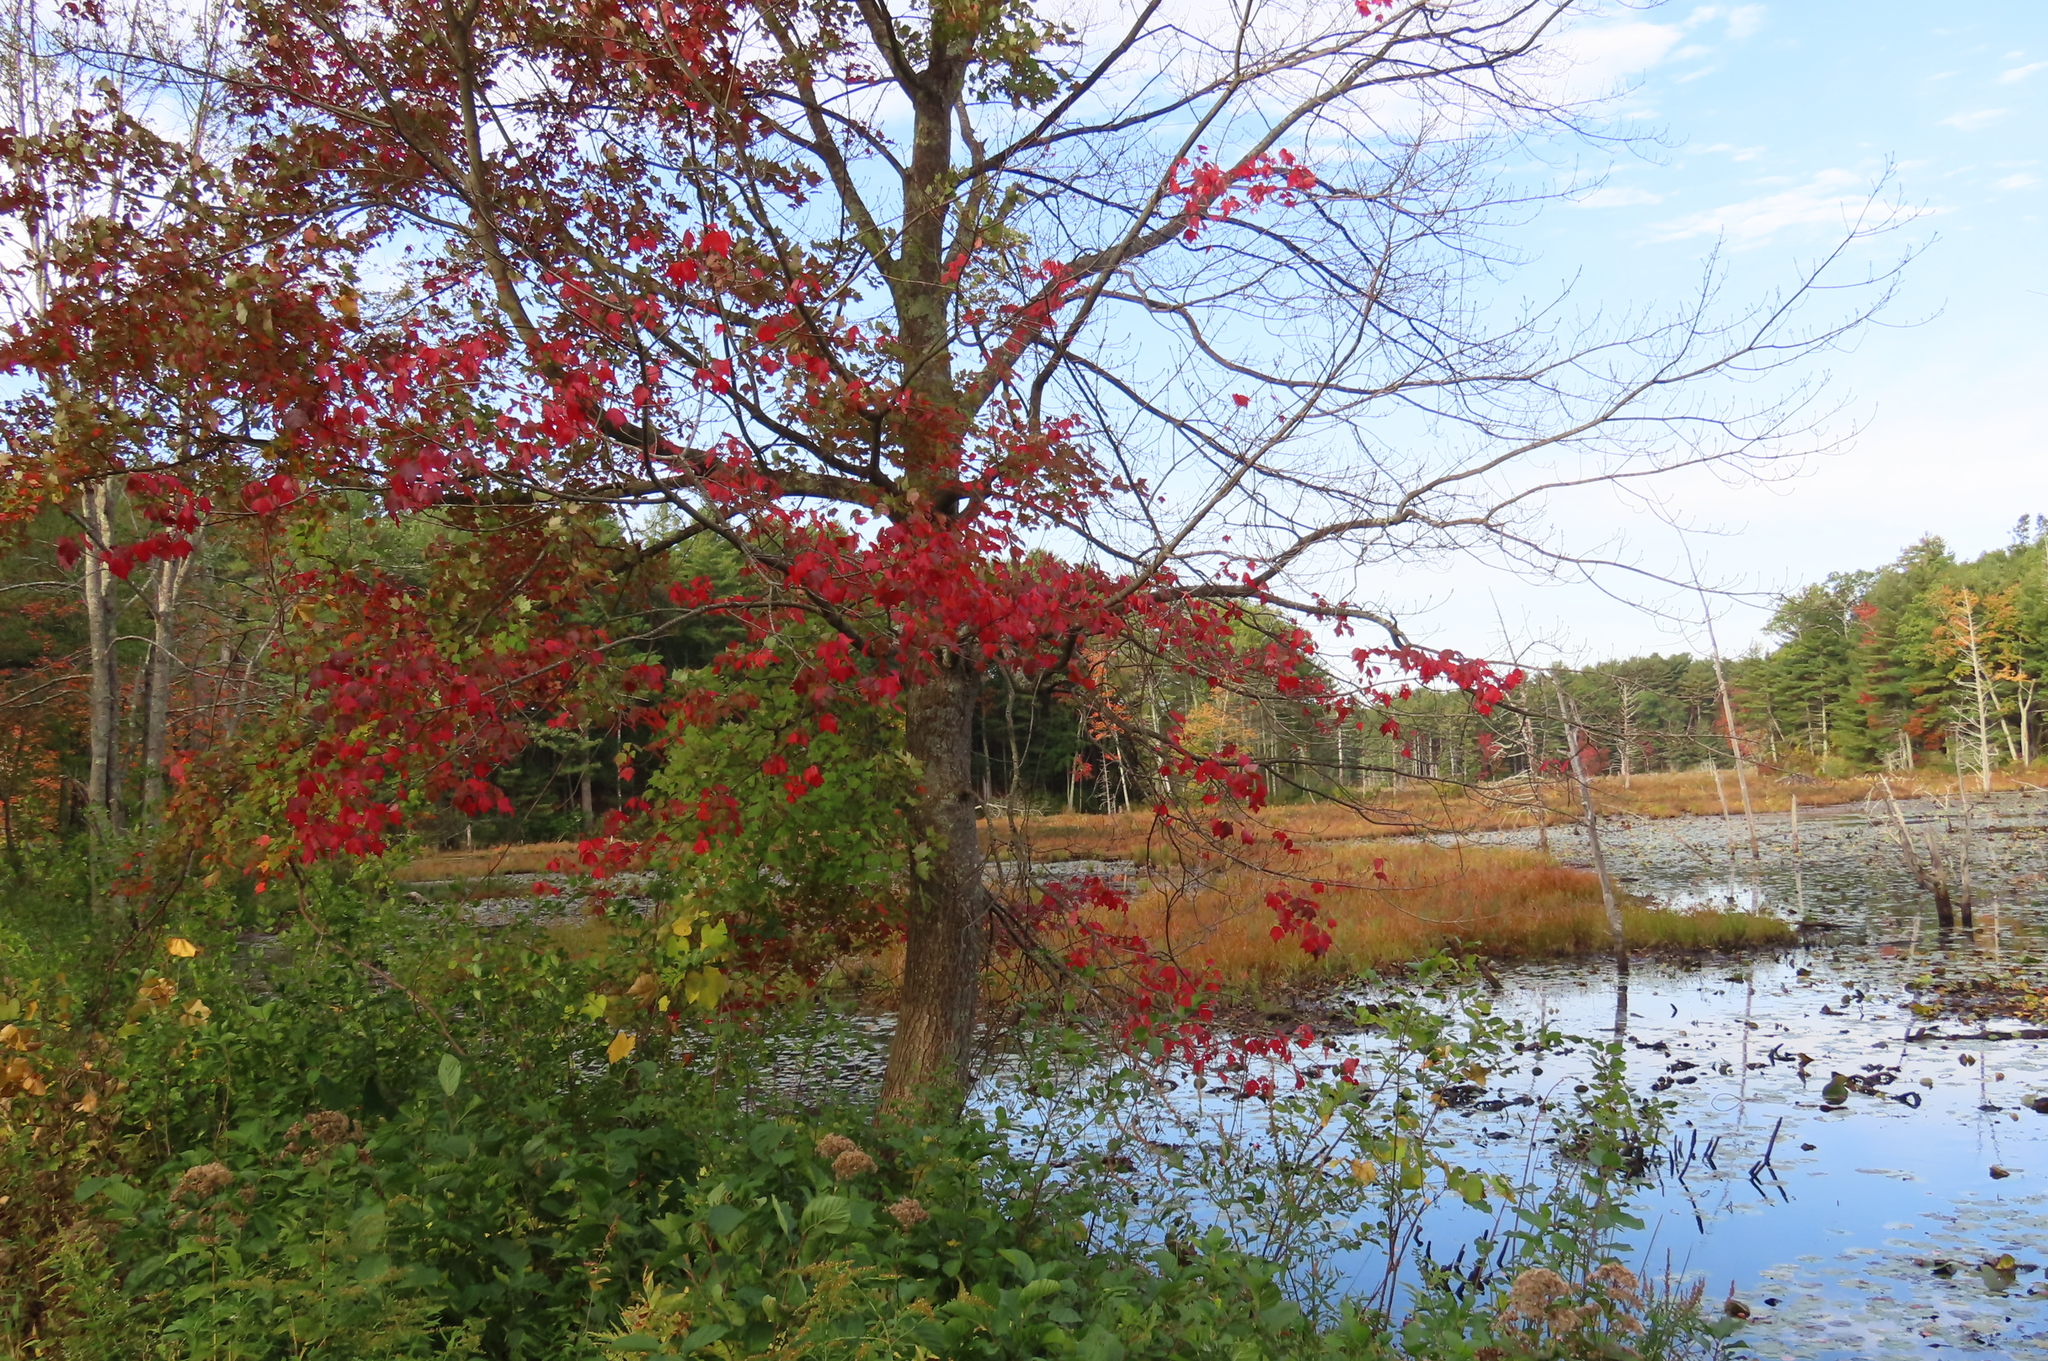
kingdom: Plantae
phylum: Tracheophyta
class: Magnoliopsida
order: Sapindales
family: Sapindaceae
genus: Acer
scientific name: Acer rubrum
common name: Red maple
